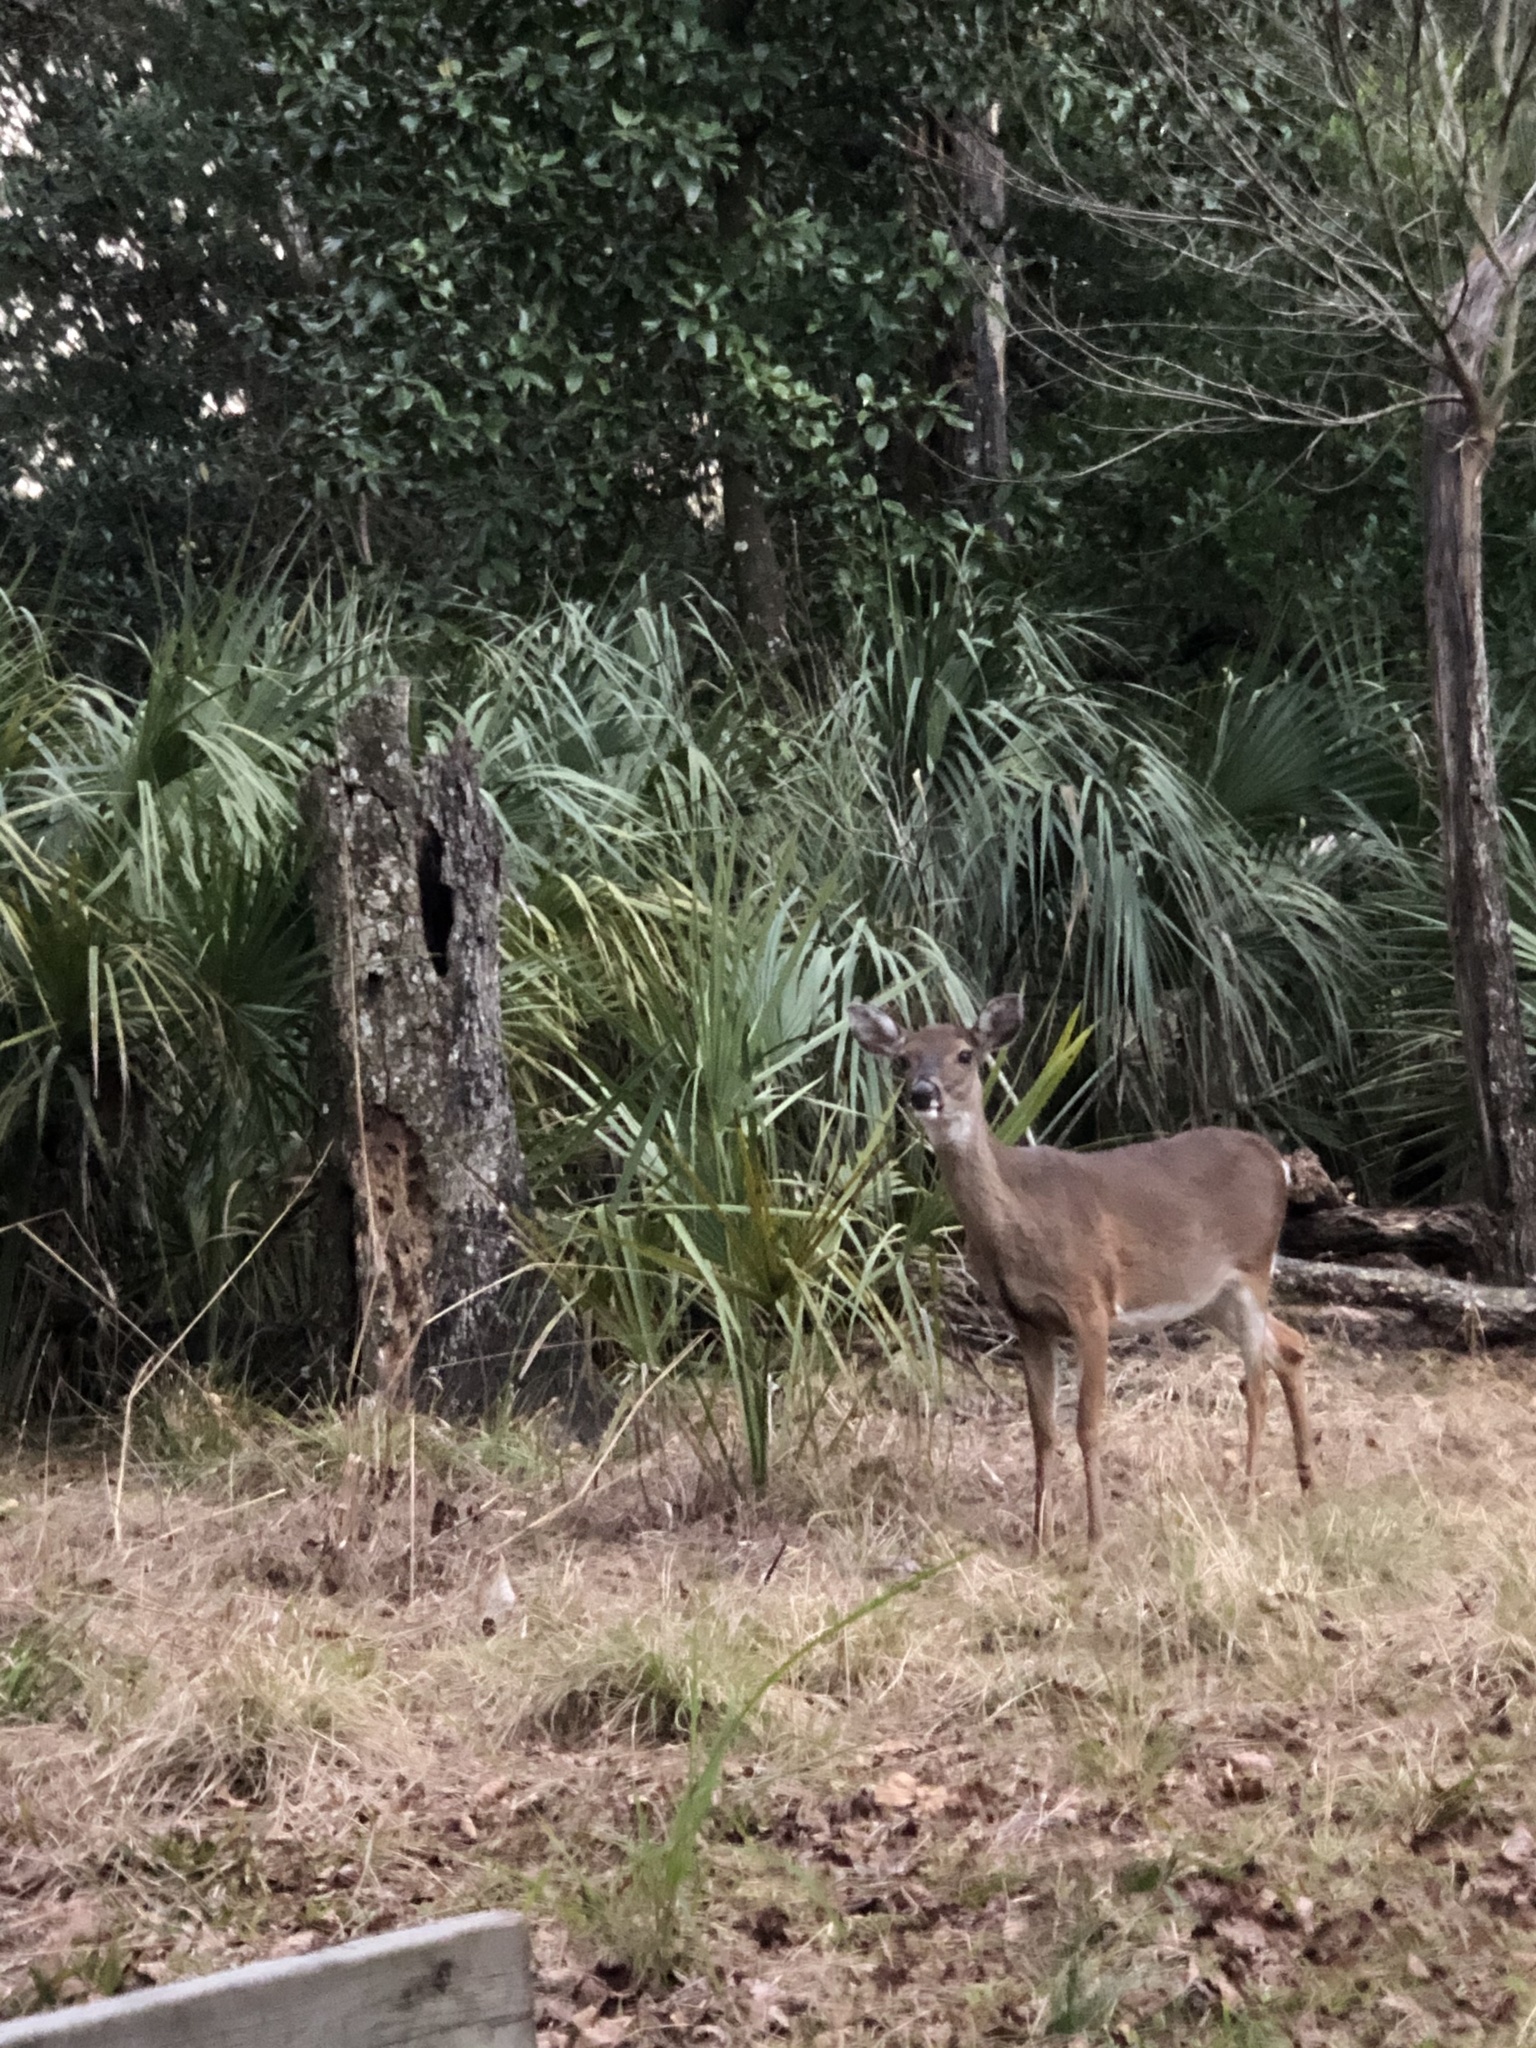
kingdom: Animalia
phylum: Chordata
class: Mammalia
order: Artiodactyla
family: Cervidae
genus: Odocoileus
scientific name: Odocoileus virginianus
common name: White-tailed deer
